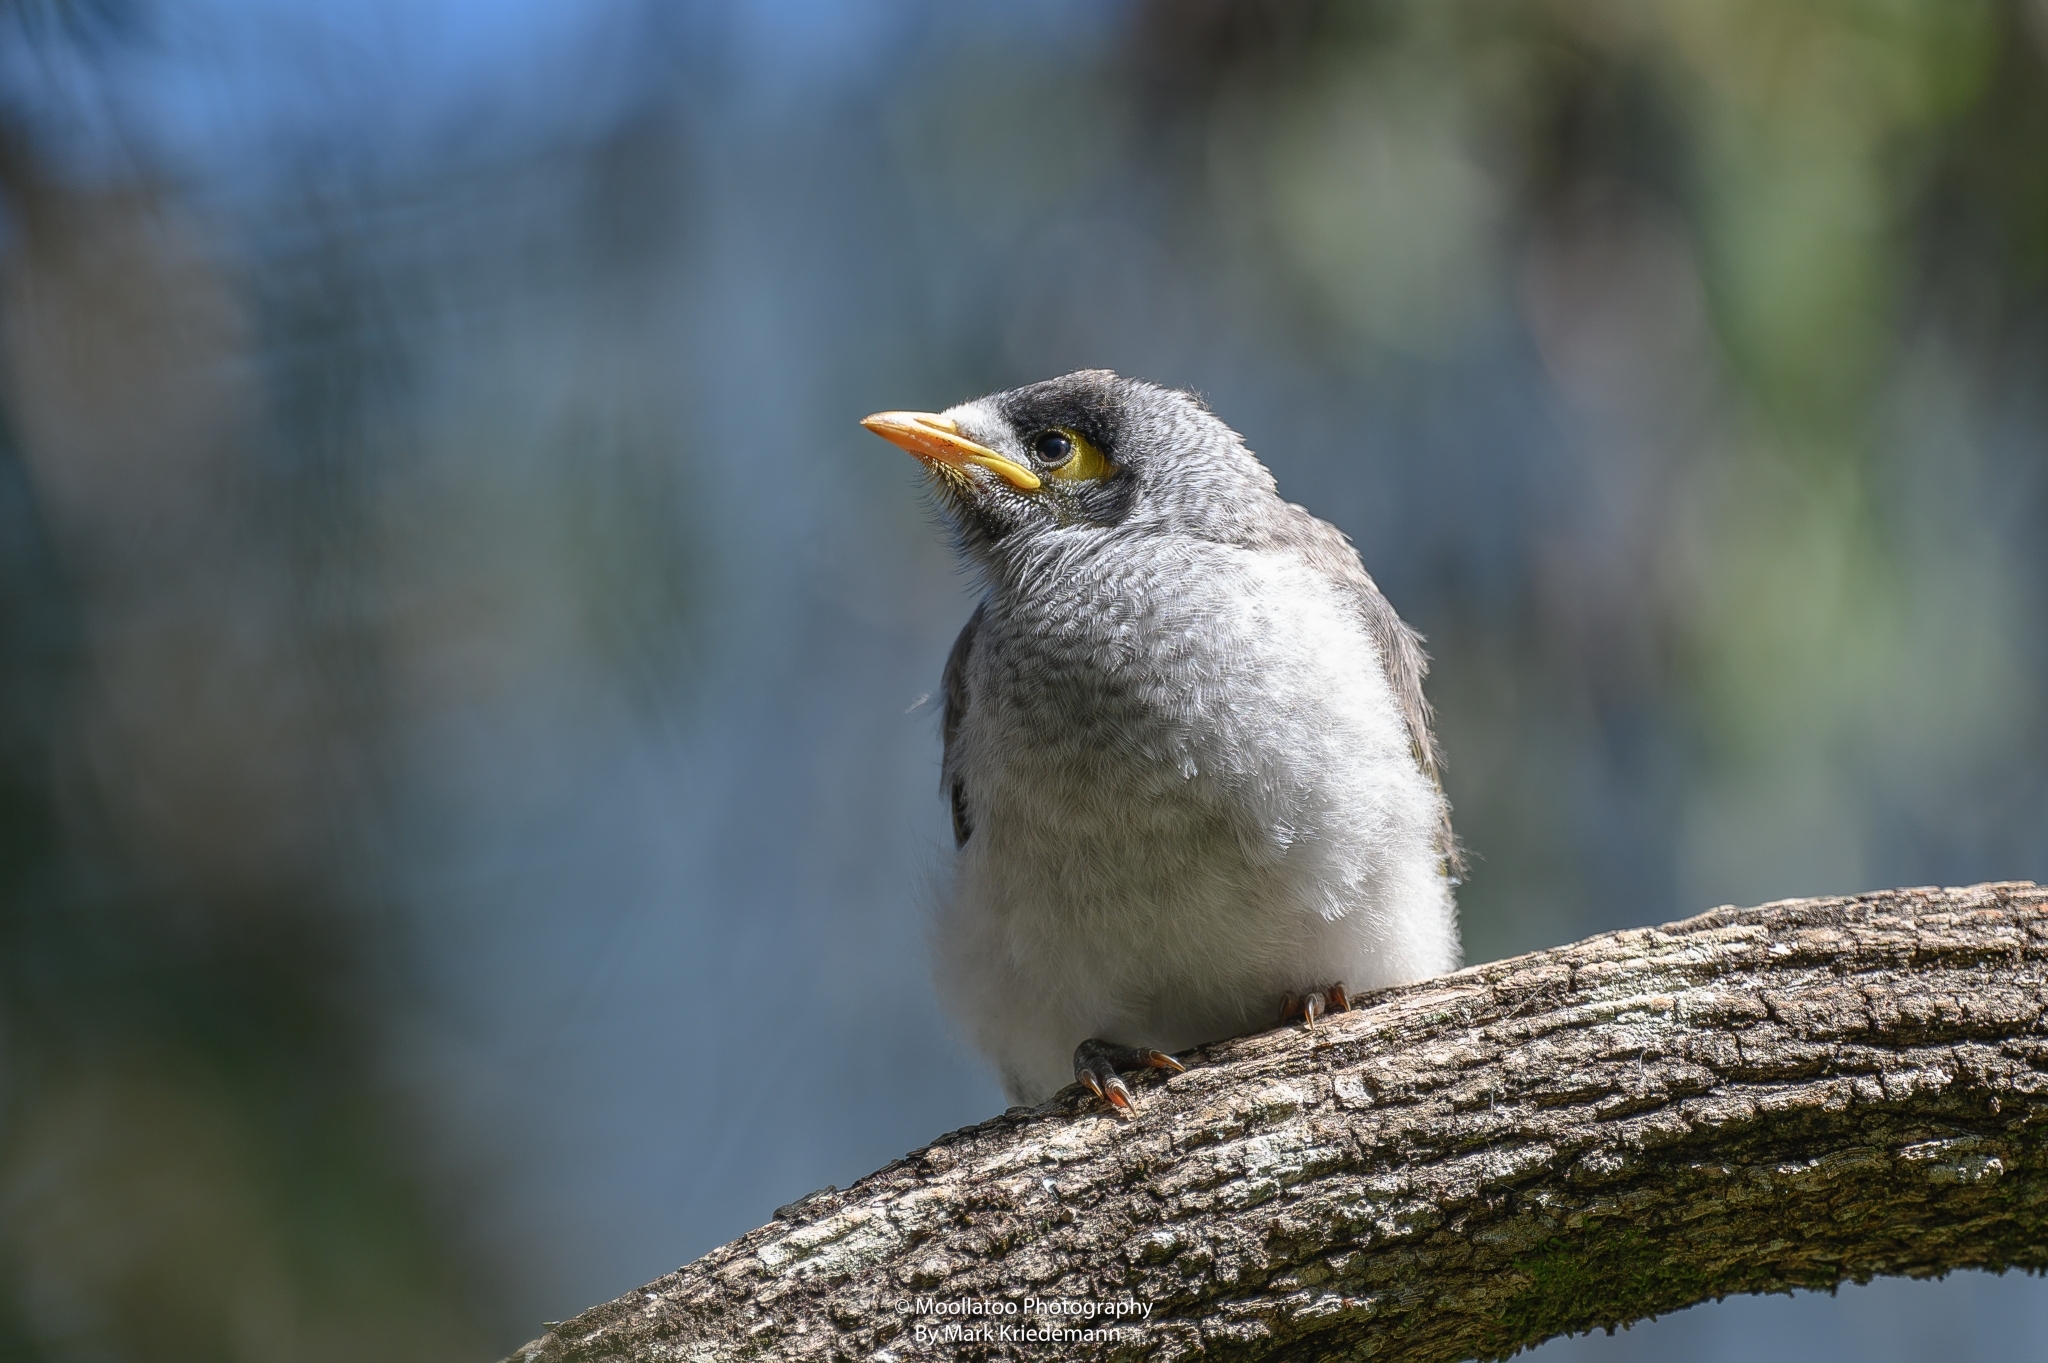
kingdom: Animalia
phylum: Chordata
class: Aves
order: Passeriformes
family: Meliphagidae
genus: Manorina
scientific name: Manorina melanocephala
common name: Noisy miner
